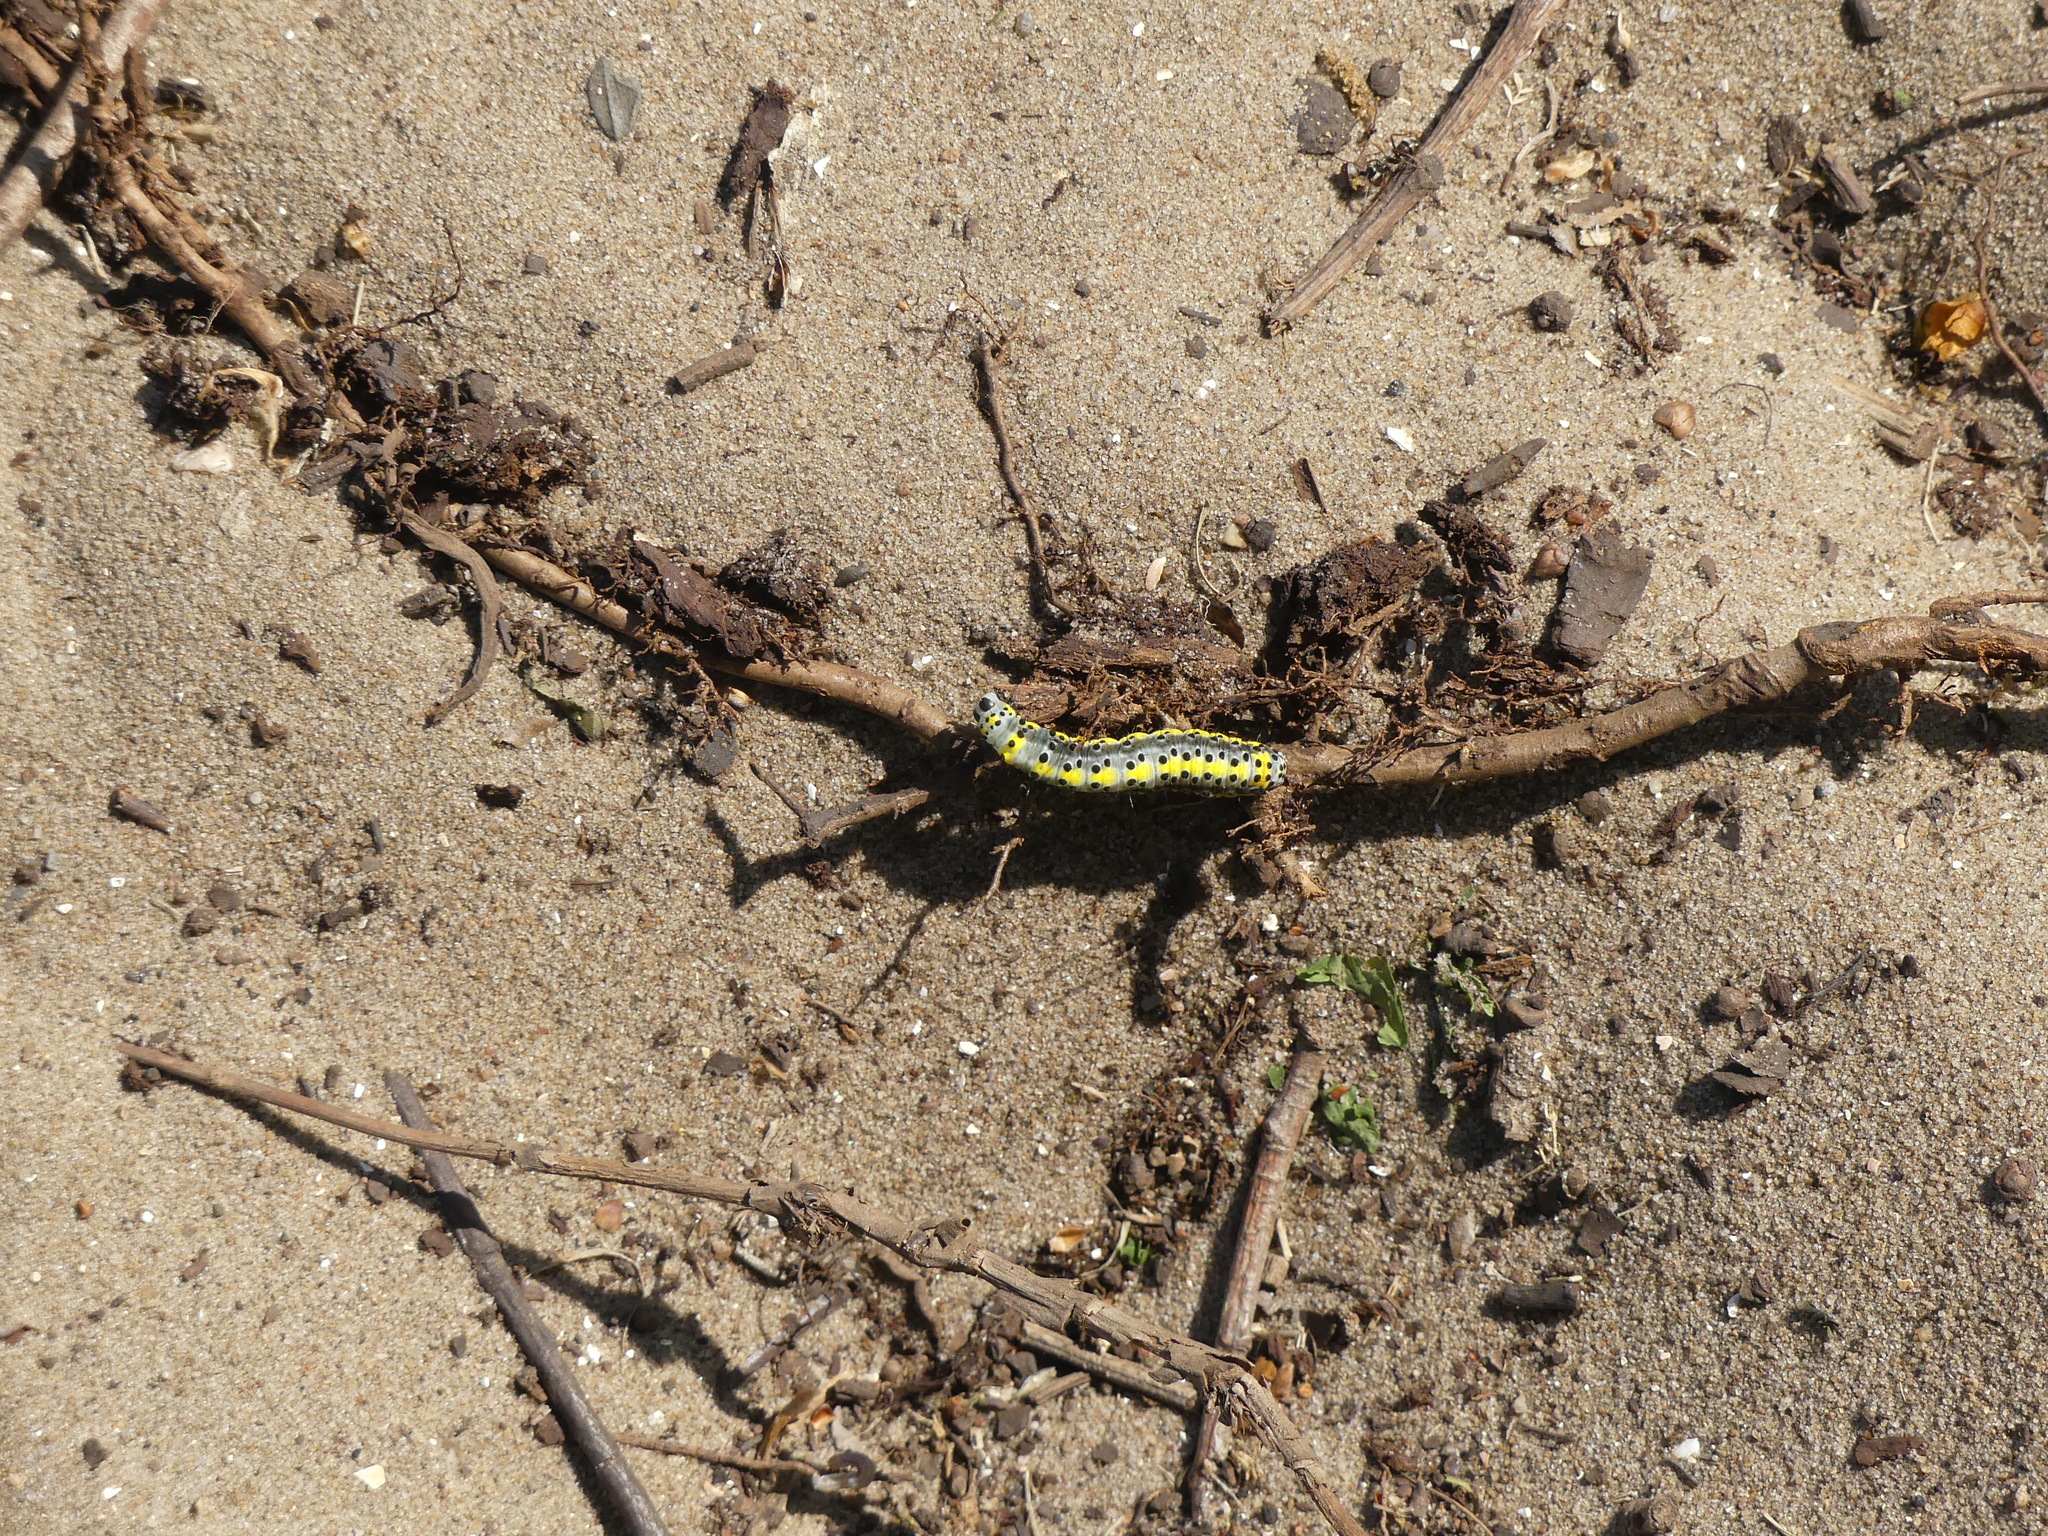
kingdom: Animalia
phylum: Arthropoda
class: Insecta
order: Lepidoptera
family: Noctuidae
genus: Diloba
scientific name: Diloba caeruleocephala
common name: Figure of eight
